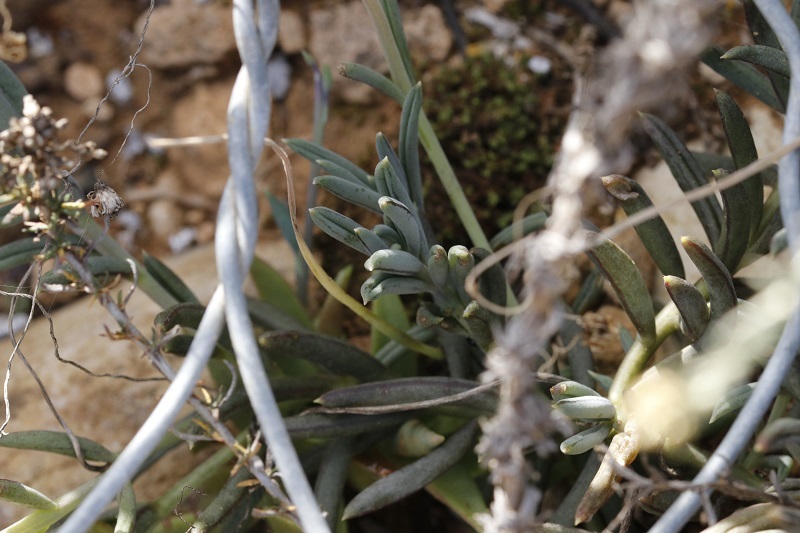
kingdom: Plantae
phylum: Tracheophyta
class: Magnoliopsida
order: Asterales
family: Asteraceae
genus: Crassothonna
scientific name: Crassothonna cacalioides
